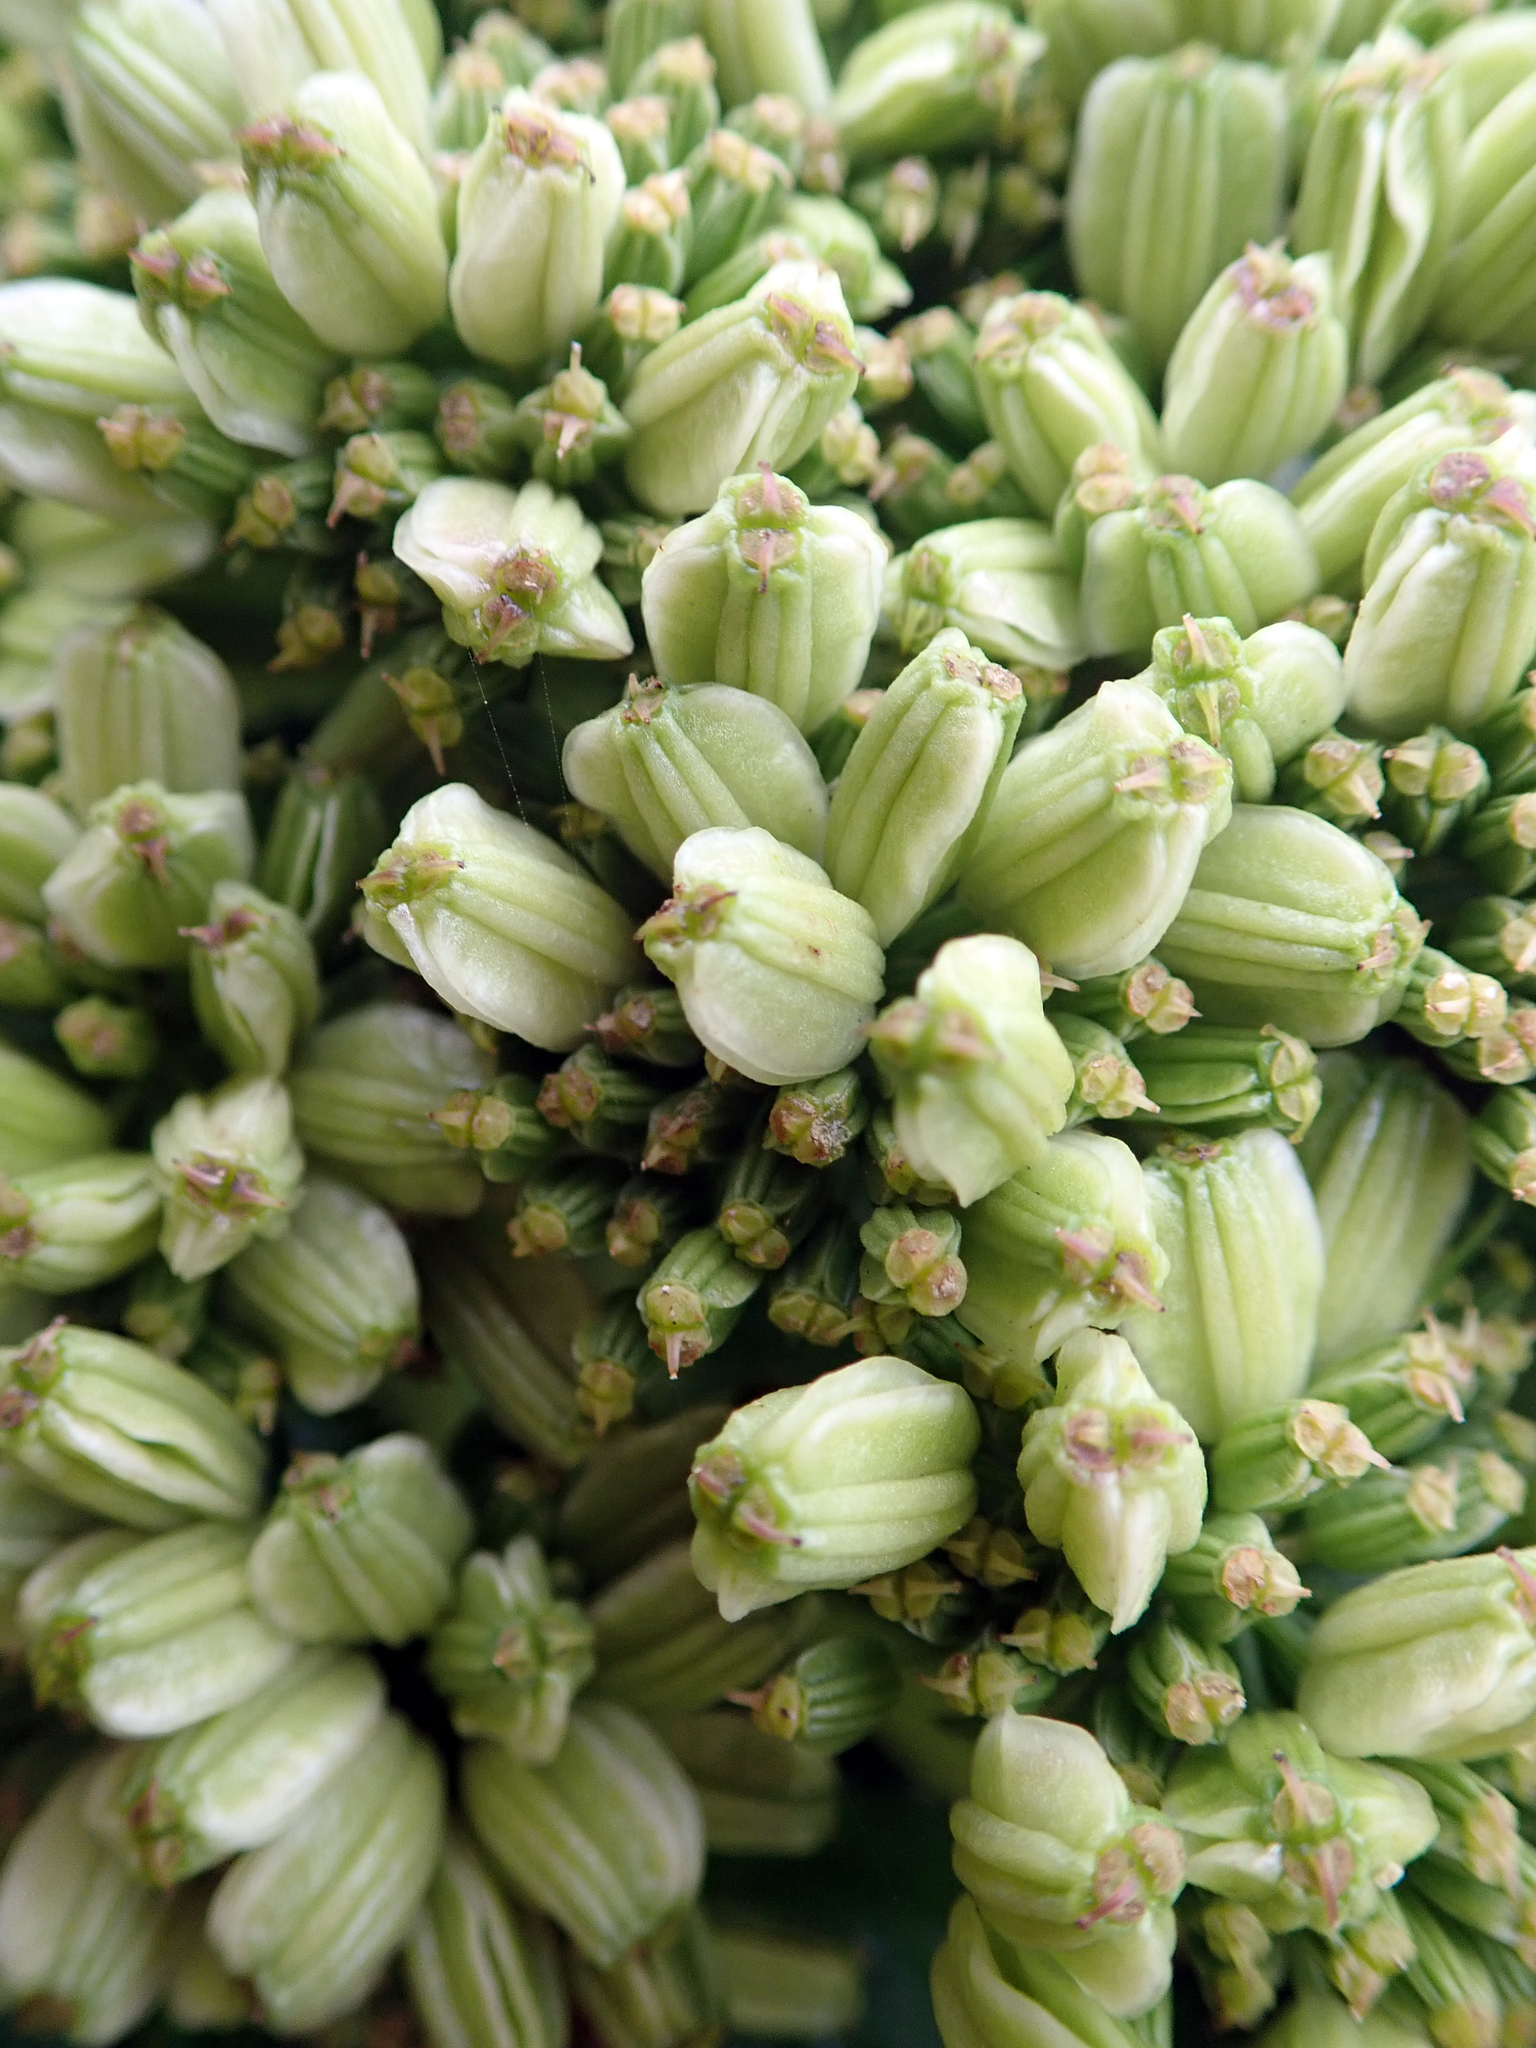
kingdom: Plantae
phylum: Tracheophyta
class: Magnoliopsida
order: Apiales
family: Apiaceae
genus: Angelica
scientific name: Angelica pachycarpa
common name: Portuguese angelica
